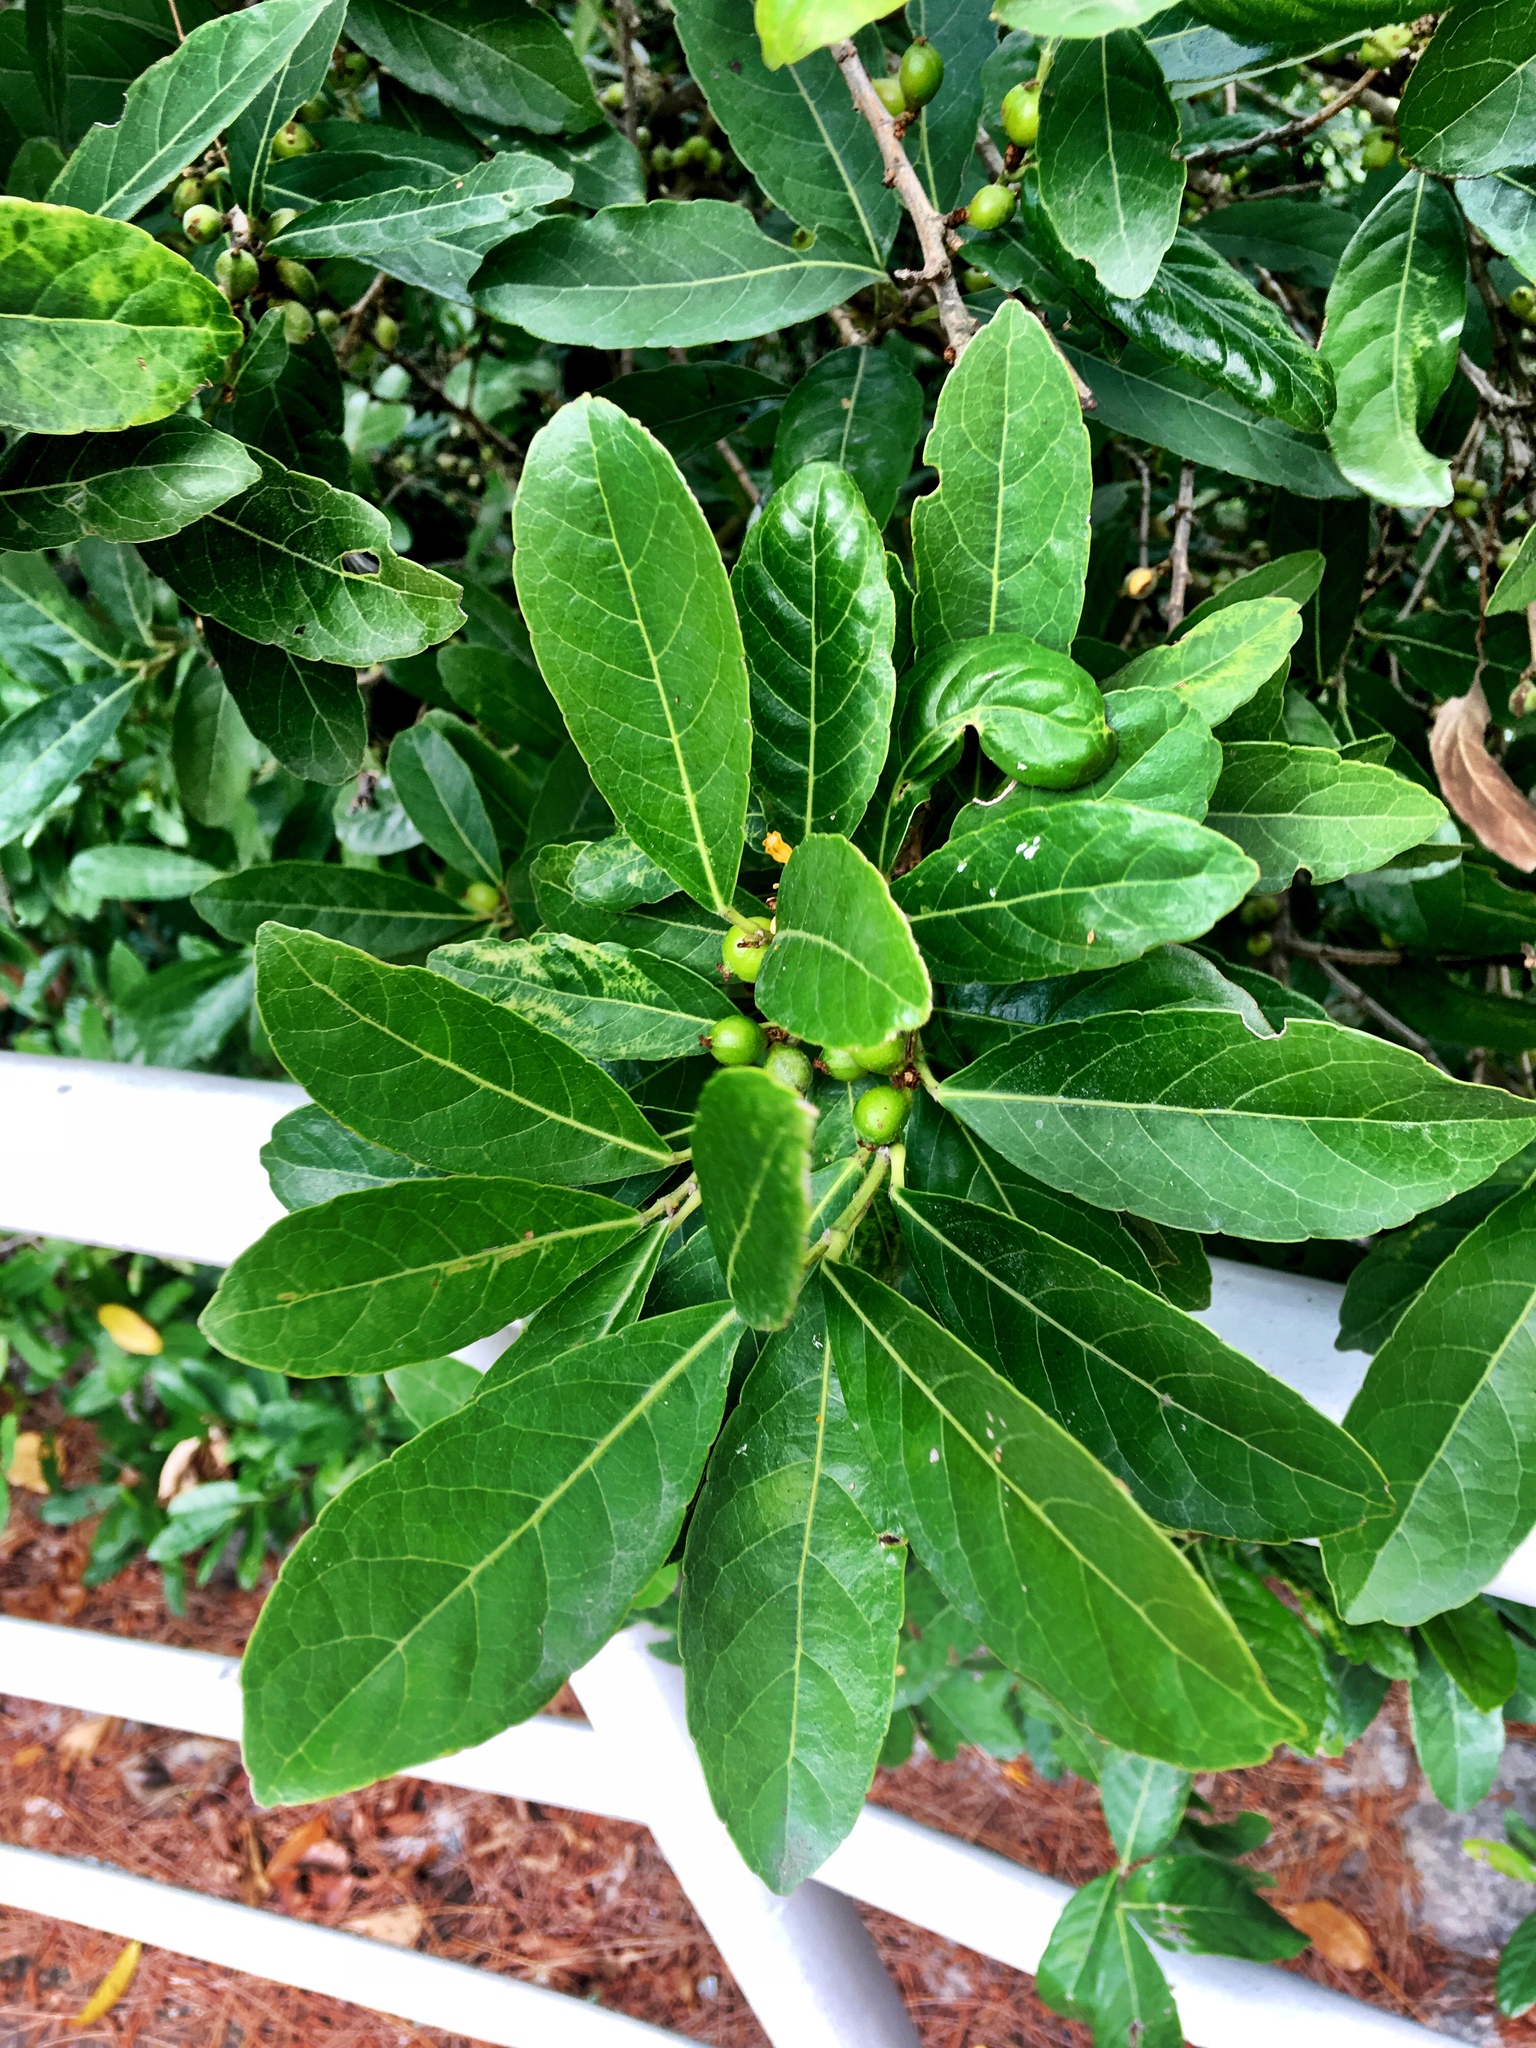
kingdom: Plantae
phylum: Tracheophyta
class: Magnoliopsida
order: Malpighiales
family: Phyllanthaceae
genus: Aporosa
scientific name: Aporosa octandra
